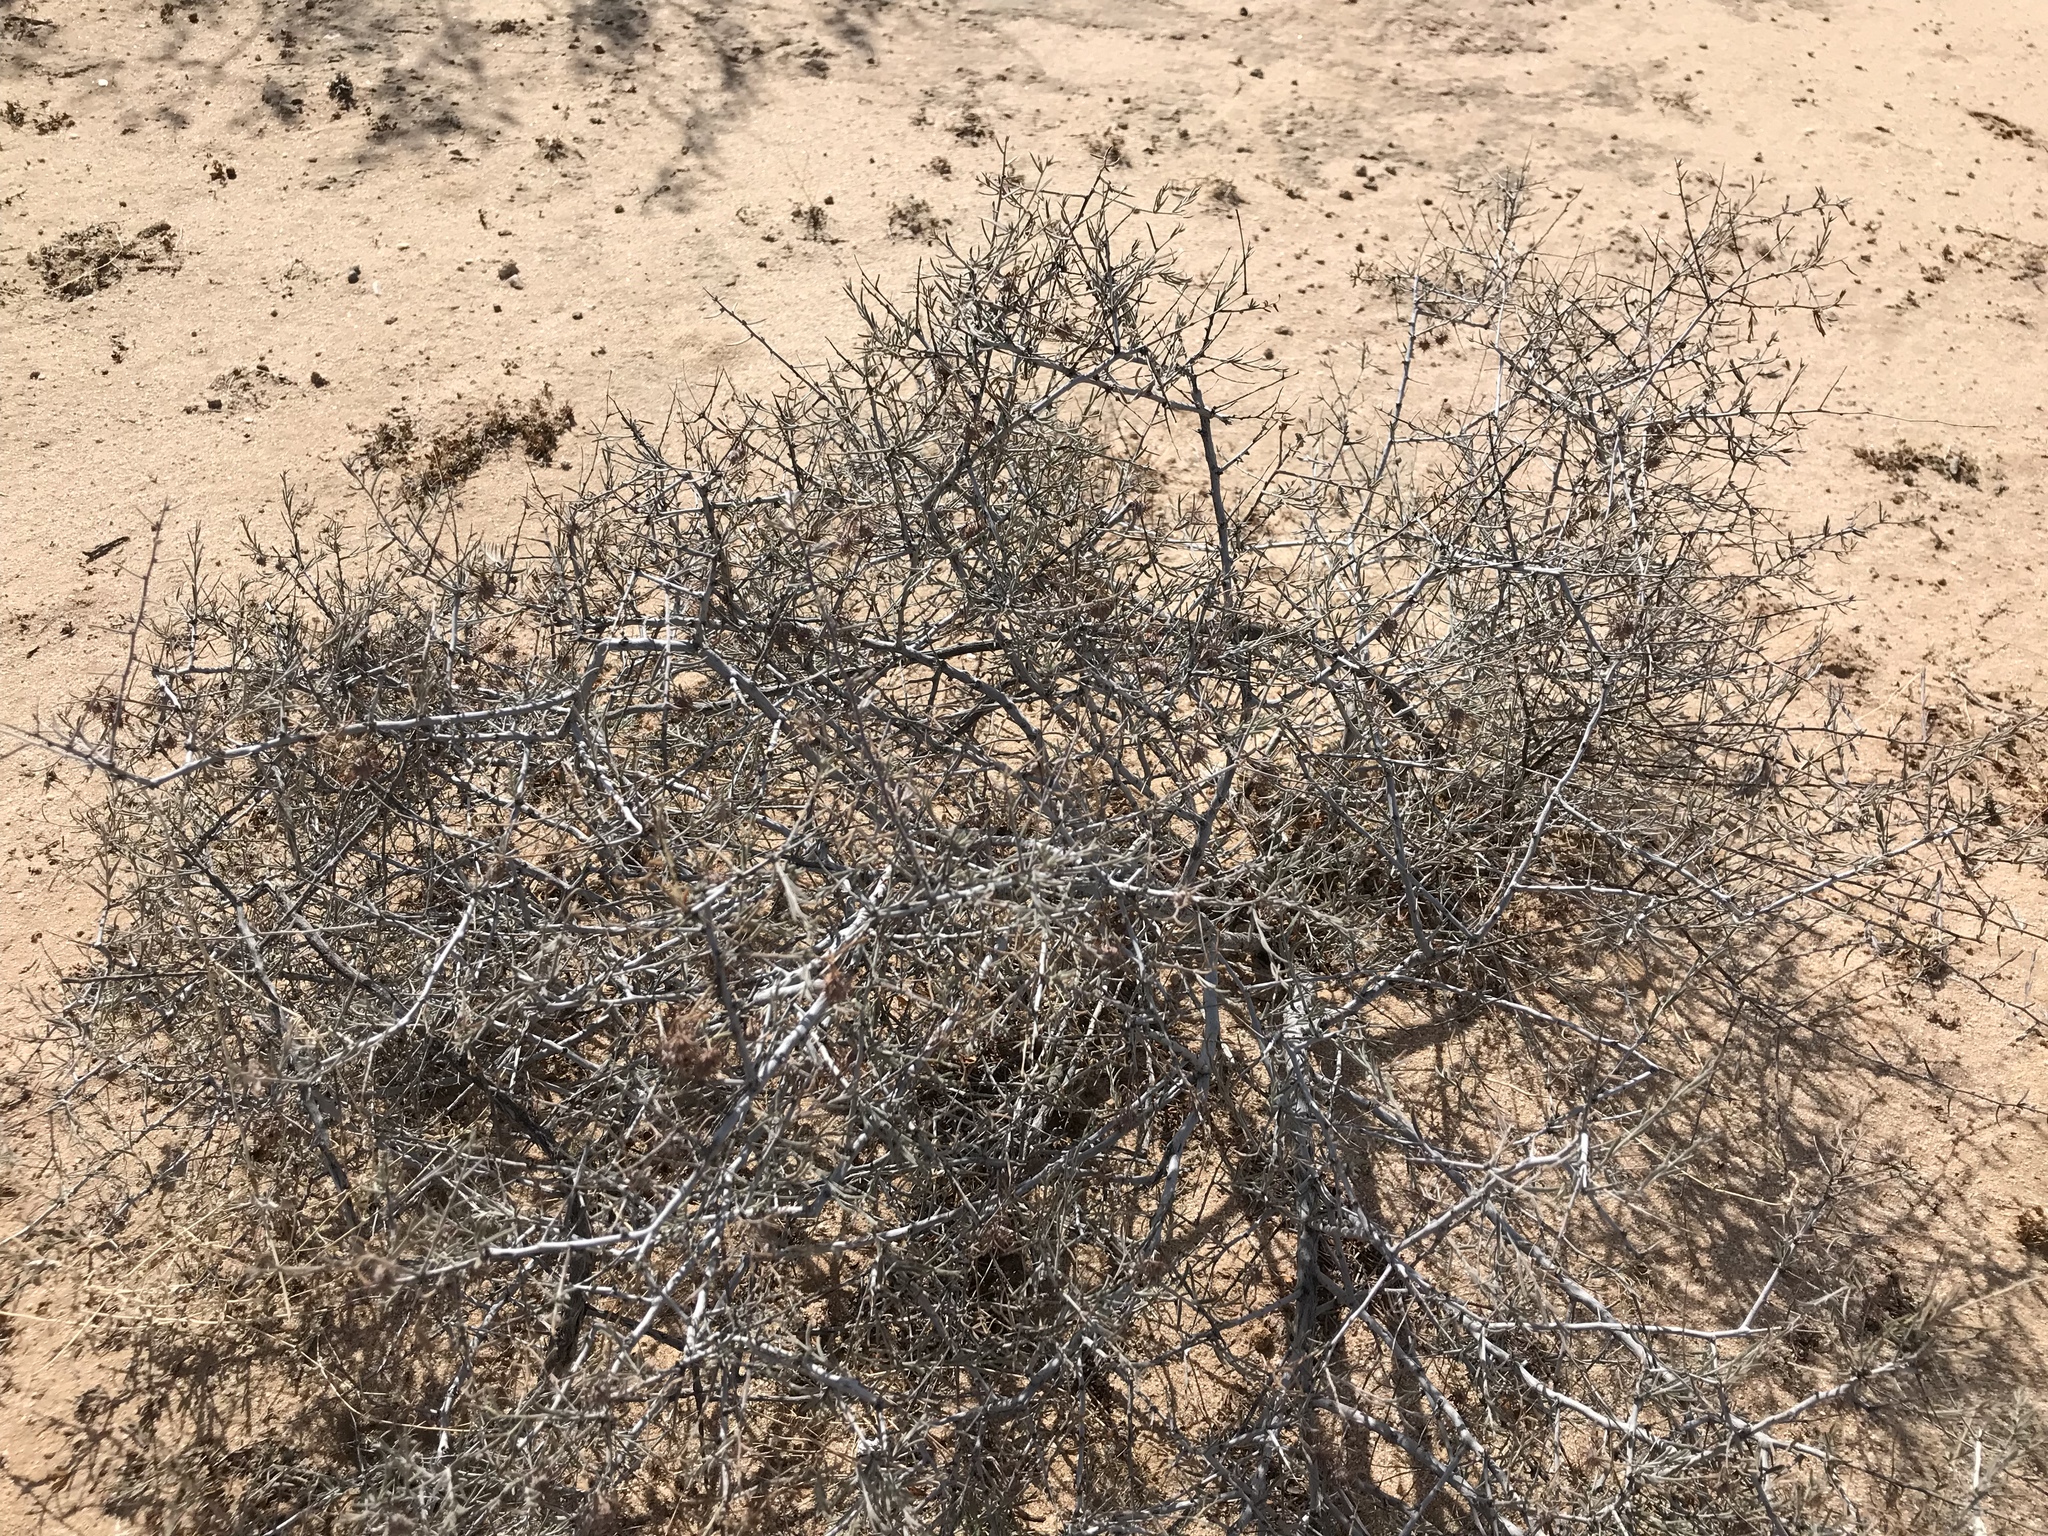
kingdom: Plantae
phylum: Tracheophyta
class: Magnoliopsida
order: Zygophyllales
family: Krameriaceae
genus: Krameria
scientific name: Krameria bicolor
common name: White ratany
